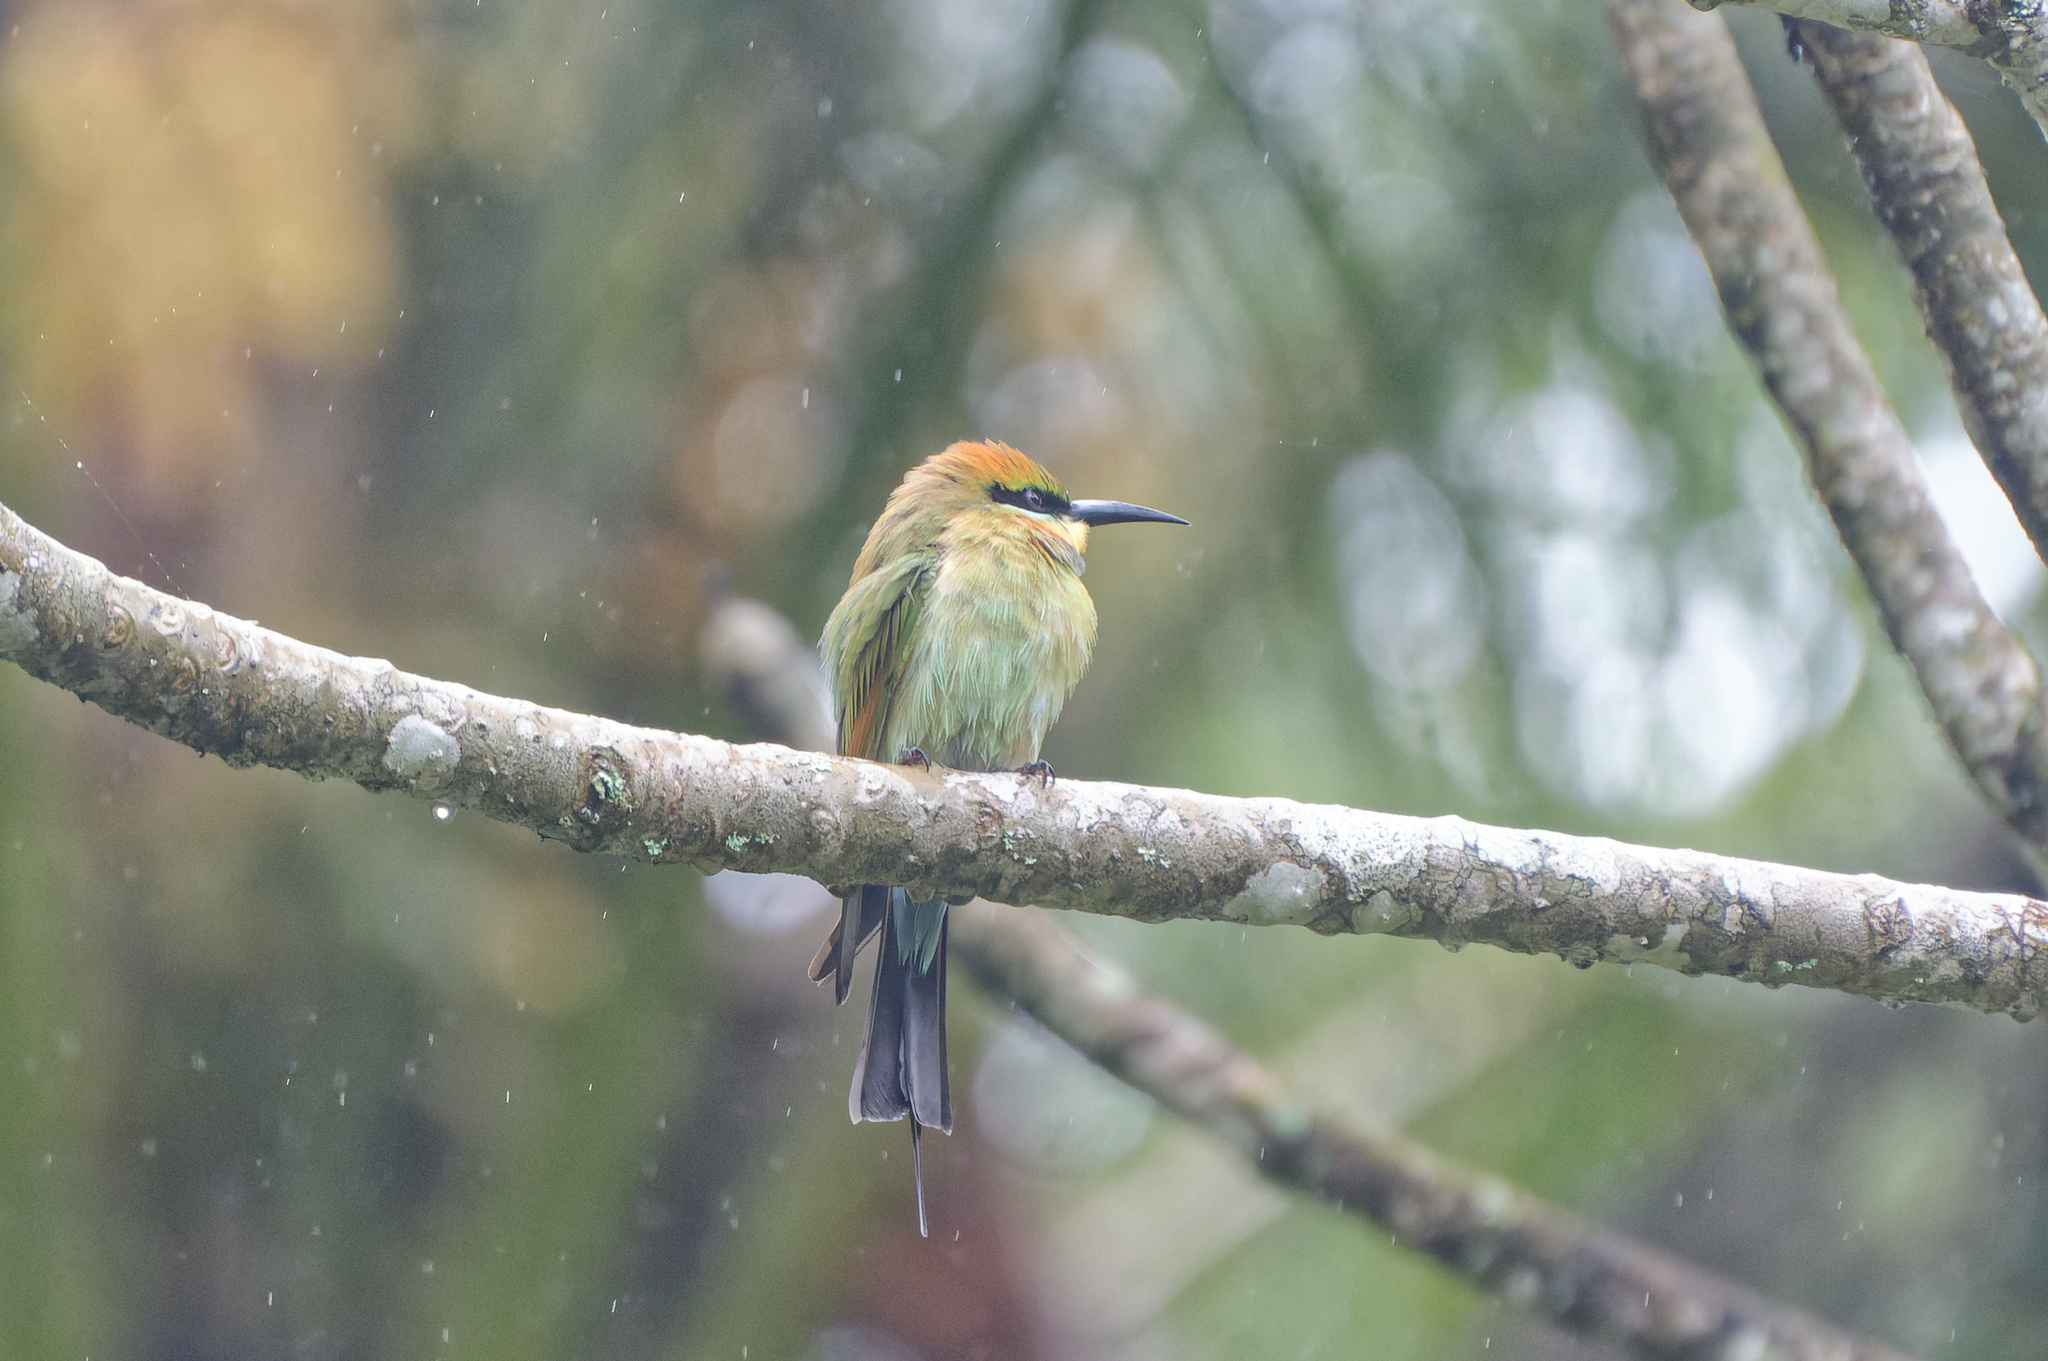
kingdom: Animalia
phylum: Chordata
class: Aves
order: Coraciiformes
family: Meropidae
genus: Merops
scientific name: Merops ornatus
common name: Rainbow bee-eater
